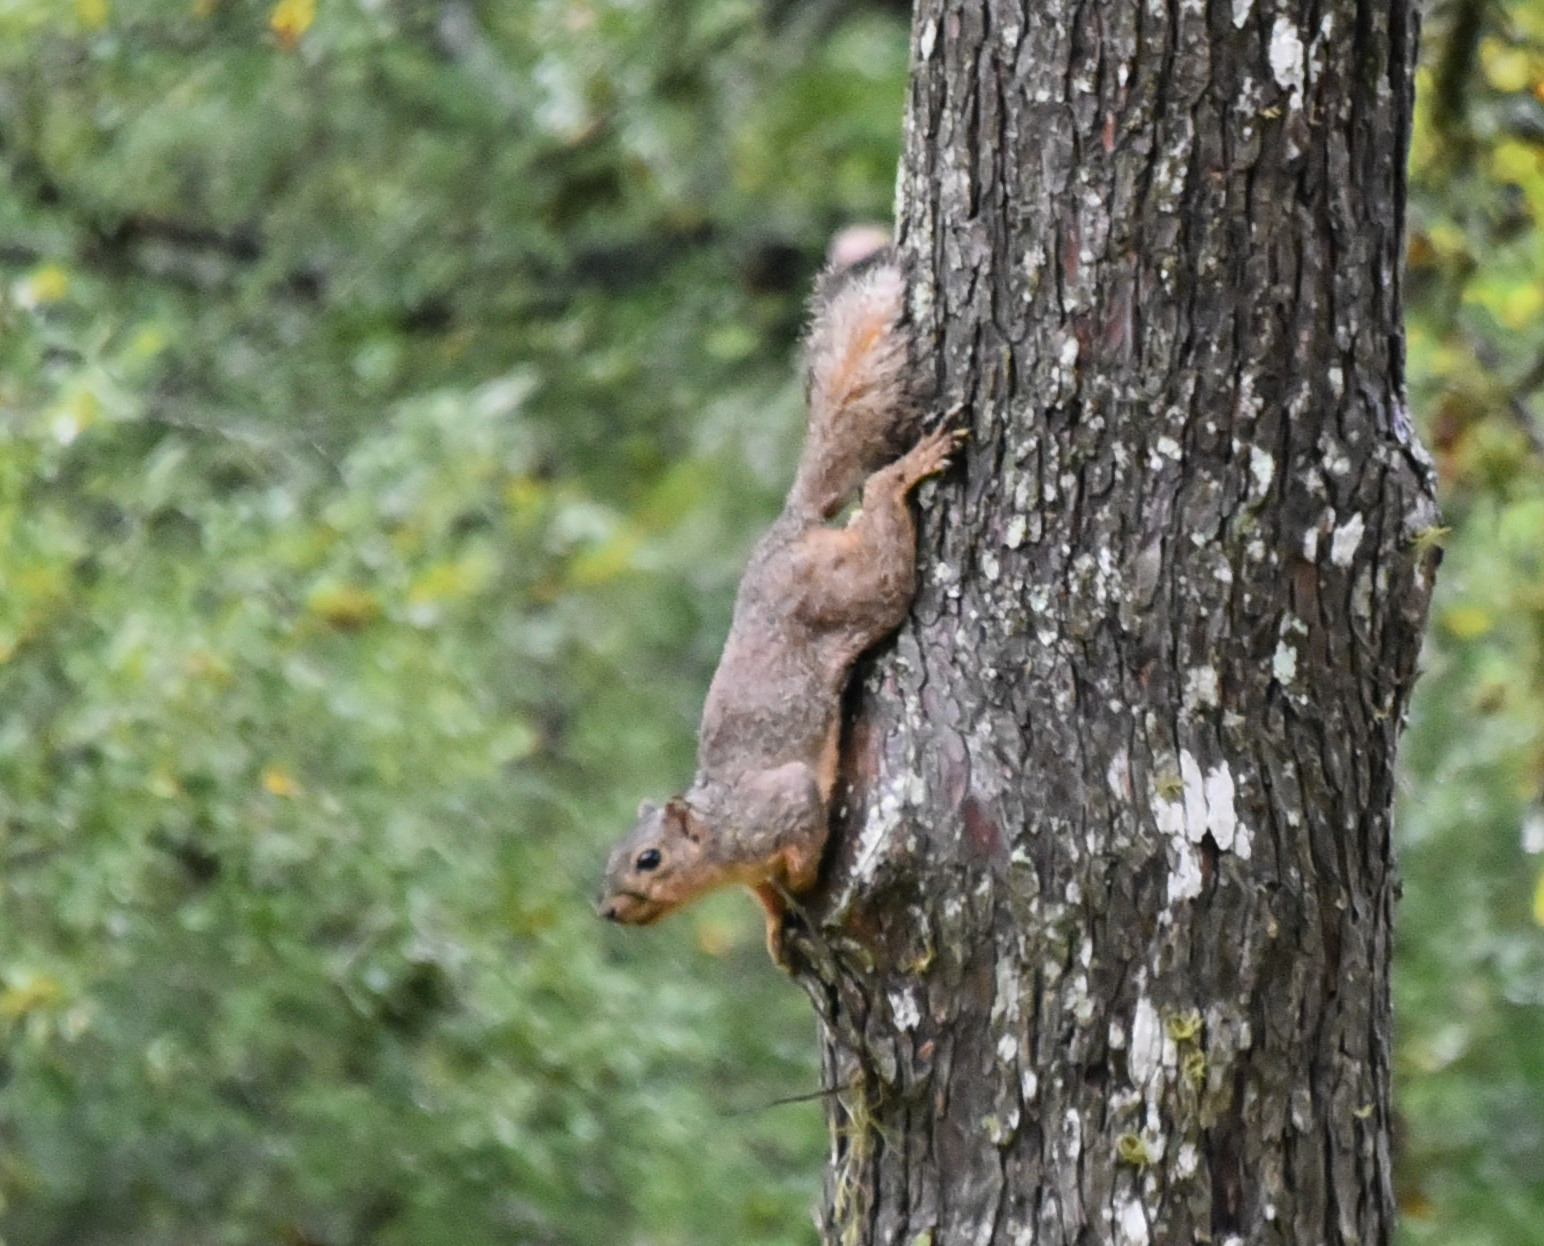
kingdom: Animalia
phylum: Chordata
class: Mammalia
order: Rodentia
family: Sciuridae
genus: Sciurus
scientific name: Sciurus niger
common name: Fox squirrel
